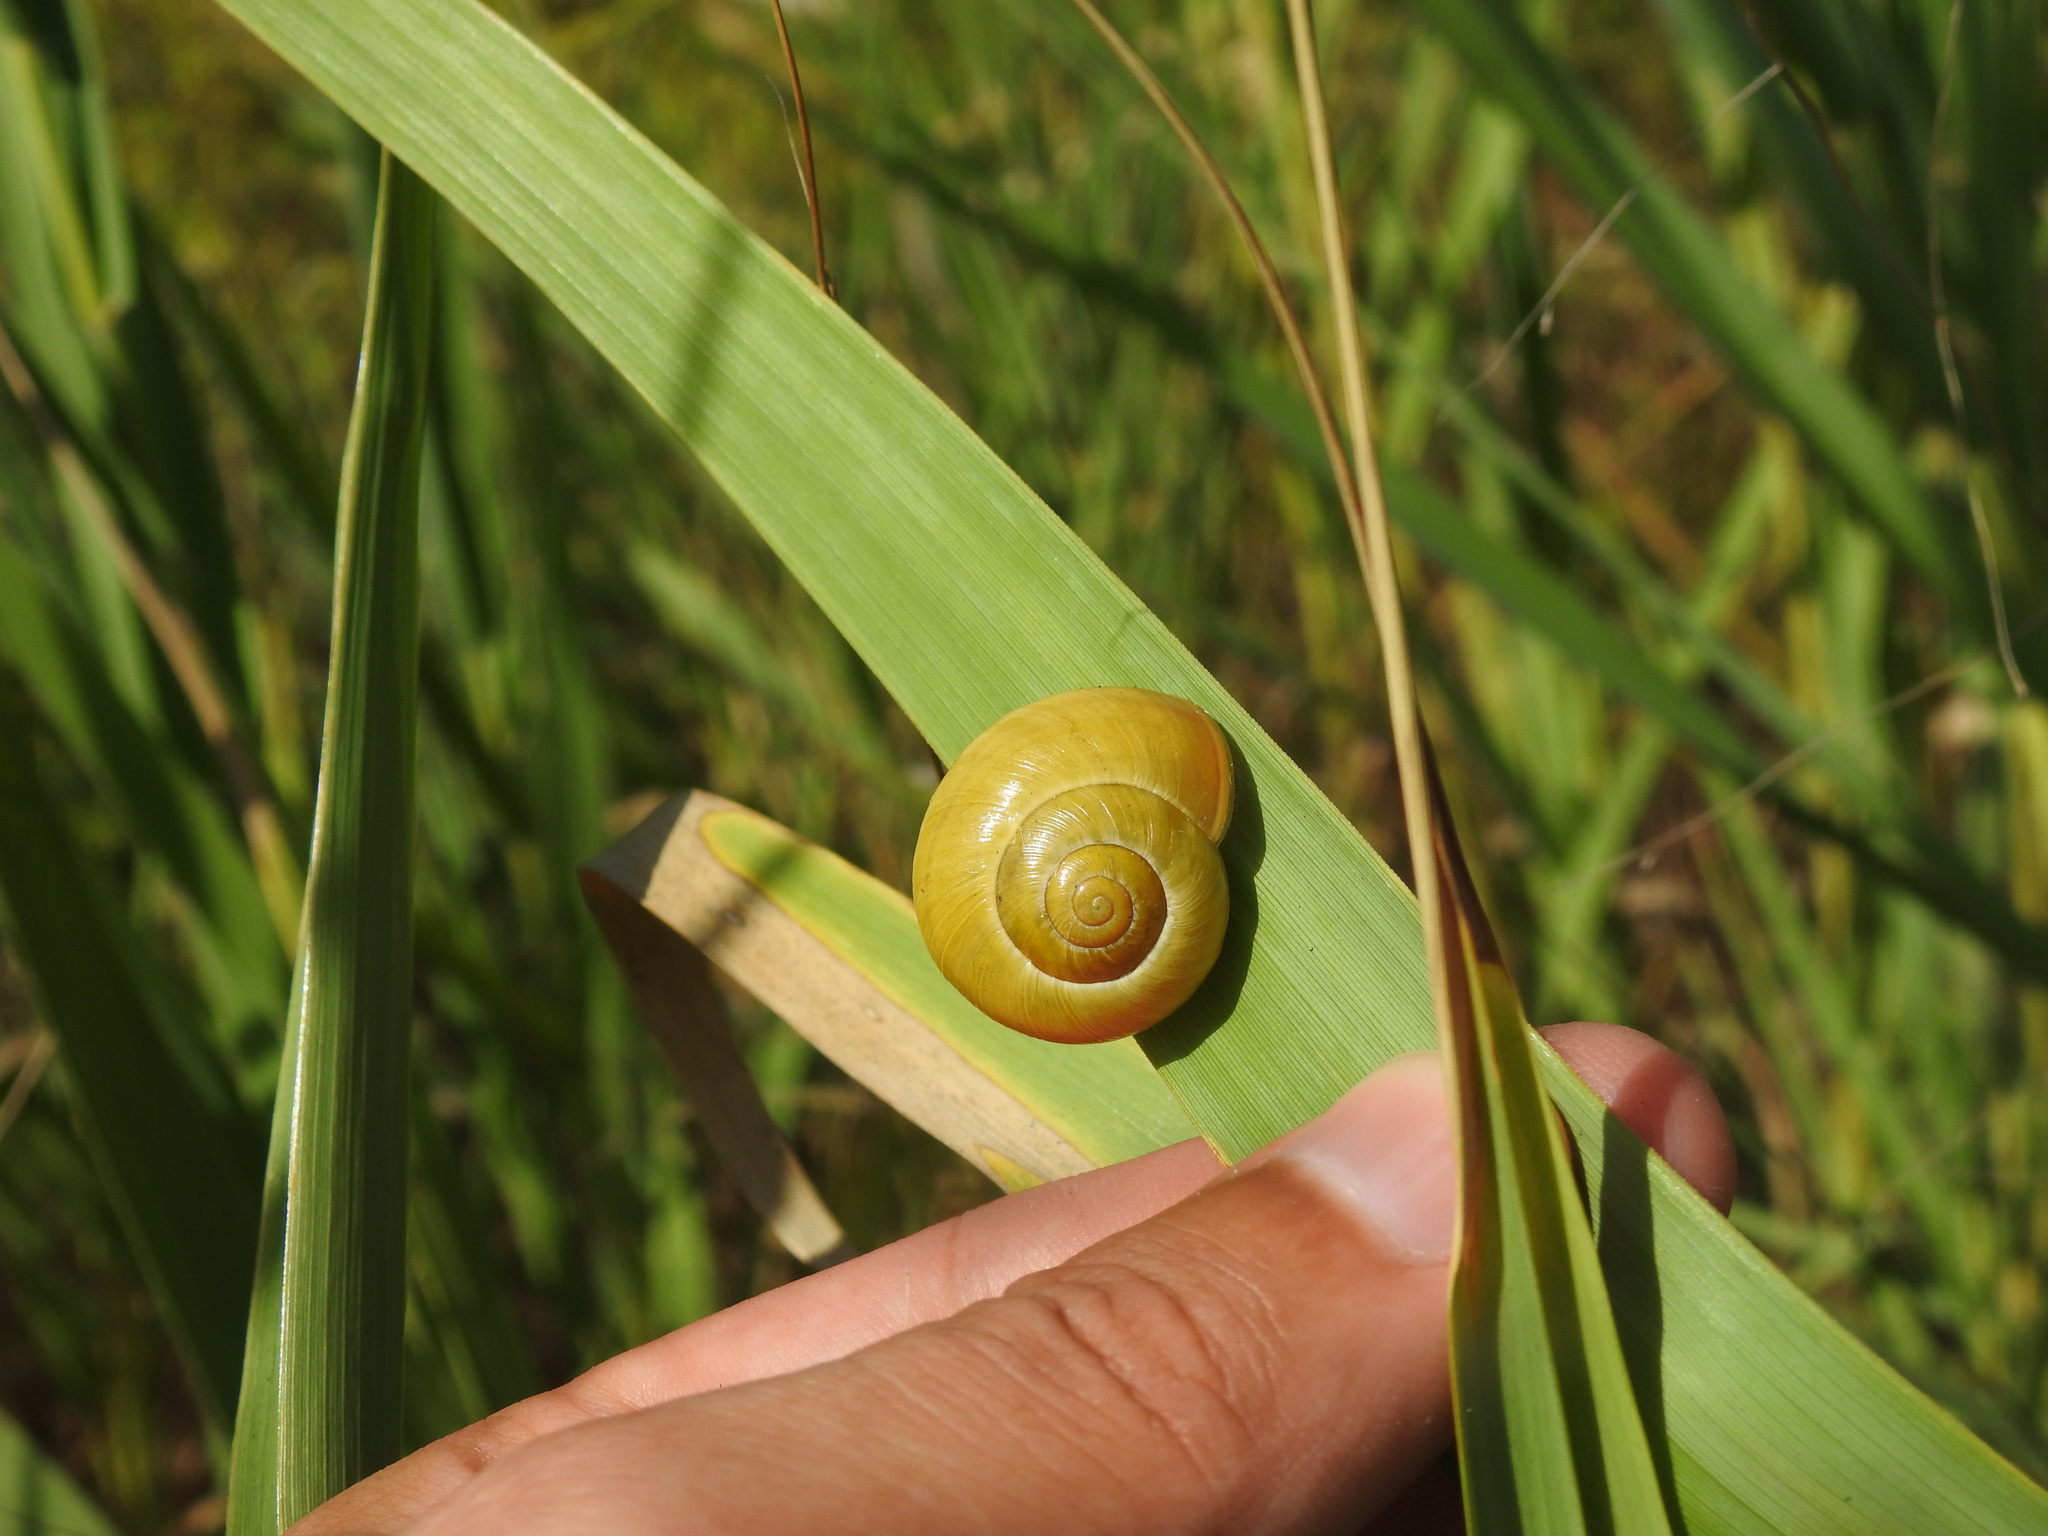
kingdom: Animalia
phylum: Mollusca
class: Gastropoda
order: Stylommatophora
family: Helicidae
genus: Cepaea
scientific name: Cepaea nemoralis
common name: Grovesnail
